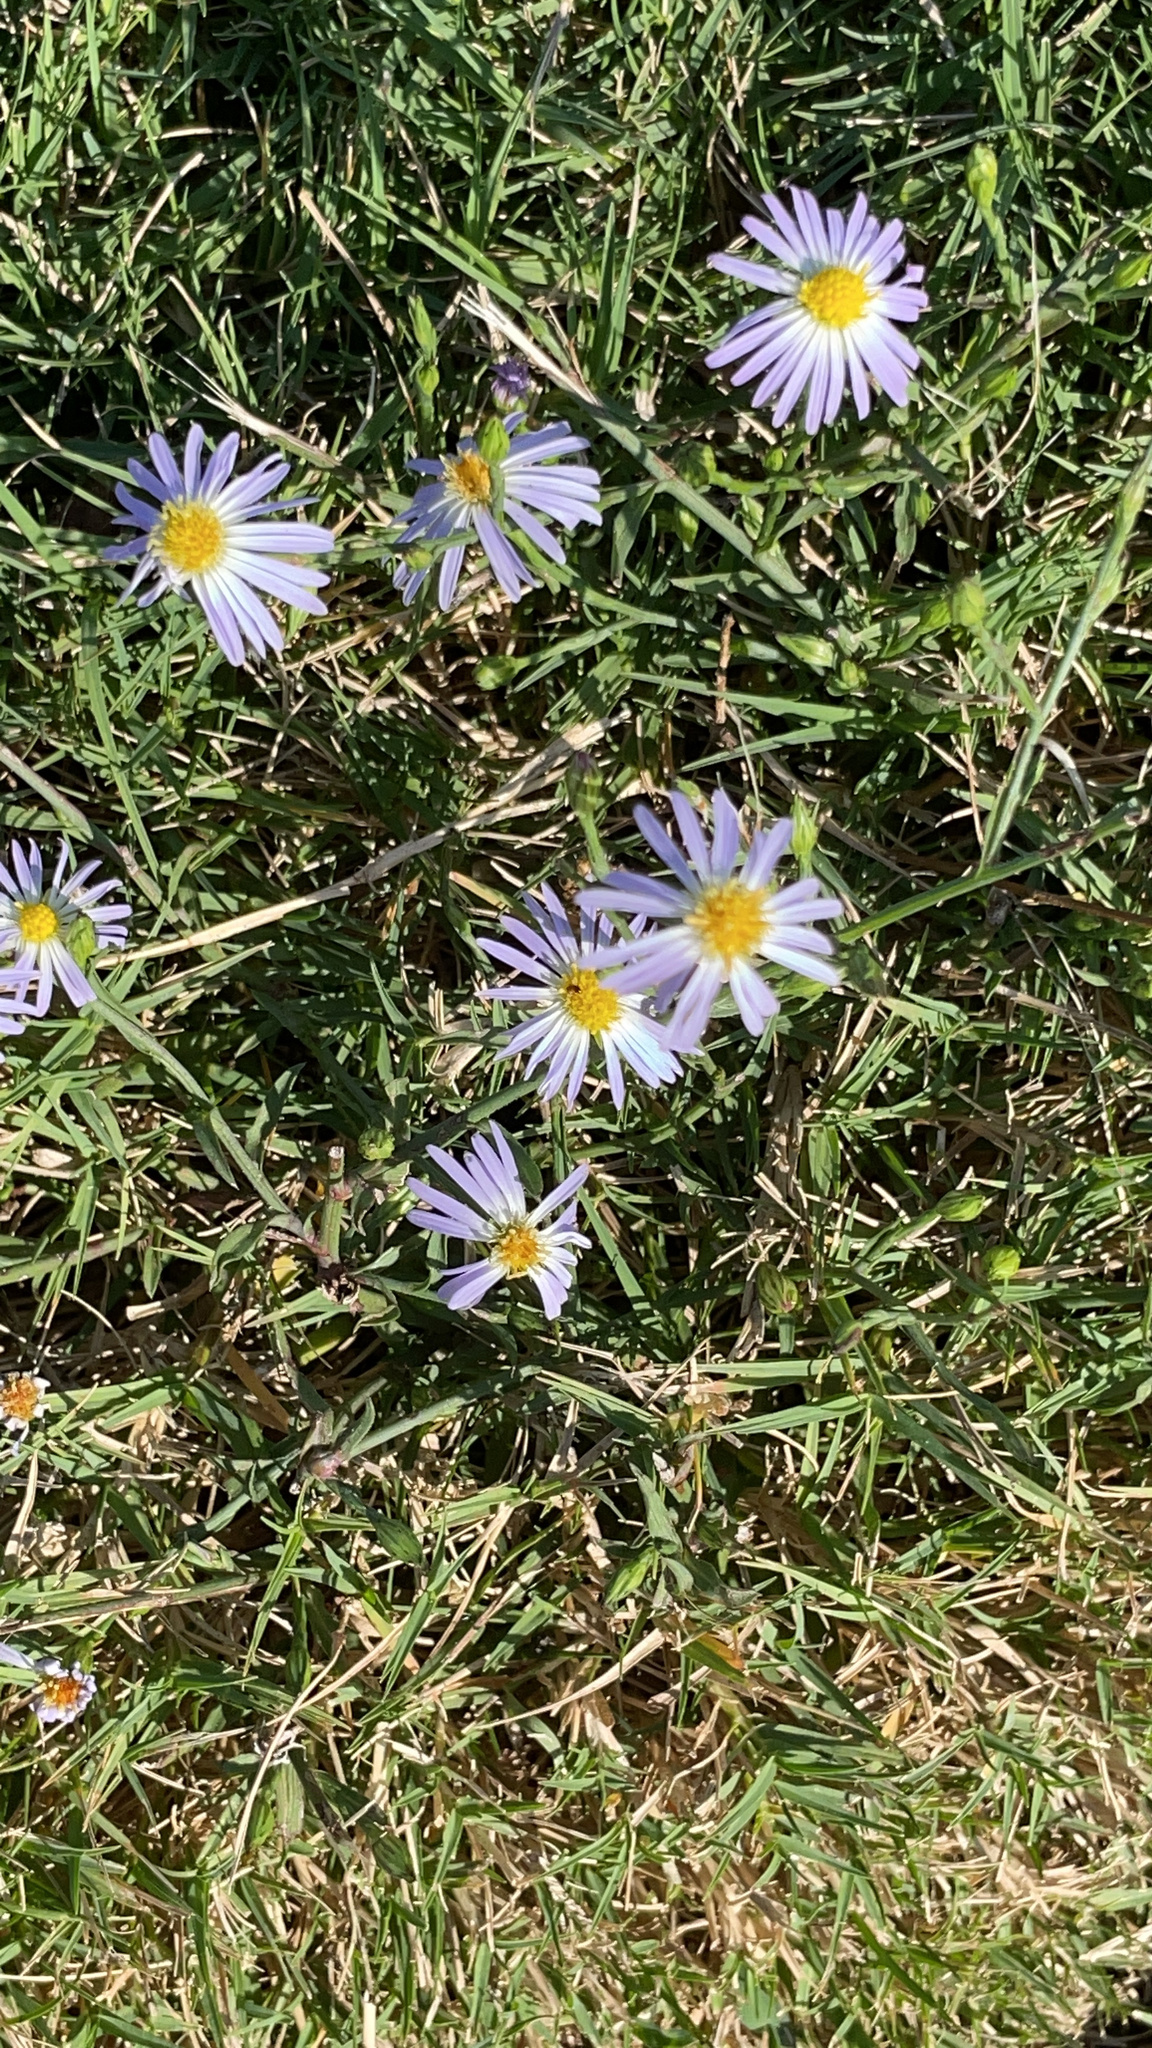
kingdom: Plantae
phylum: Tracheophyta
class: Magnoliopsida
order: Asterales
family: Asteraceae
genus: Symphyotrichum
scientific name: Symphyotrichum divaricatum
